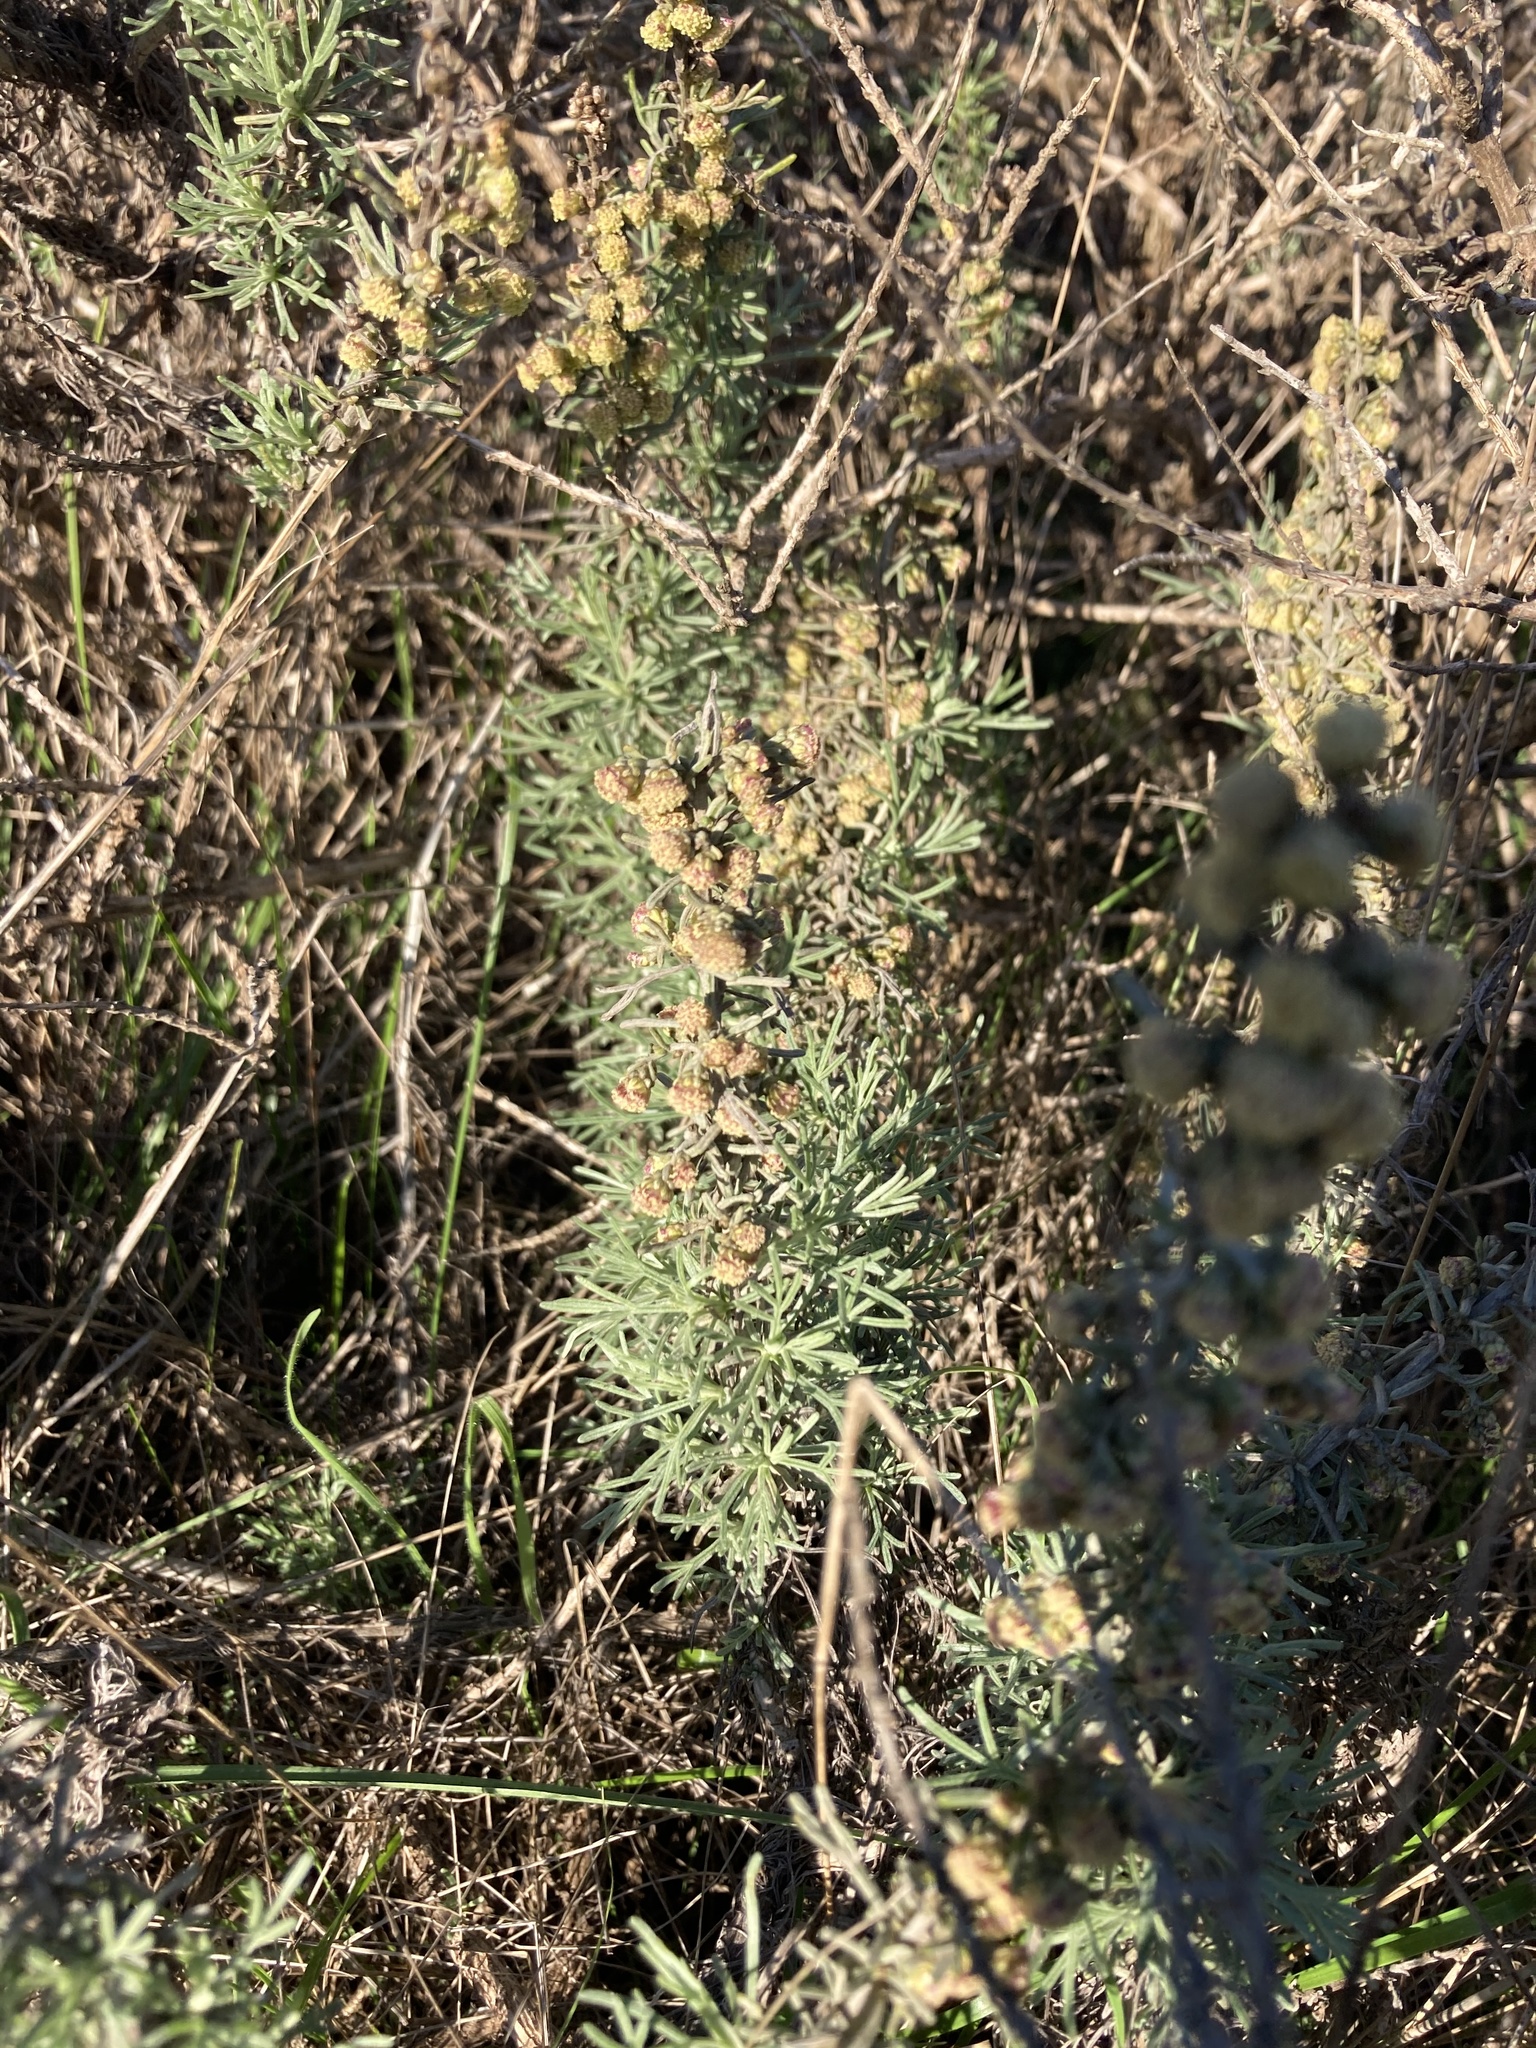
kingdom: Plantae
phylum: Tracheophyta
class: Magnoliopsida
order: Asterales
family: Asteraceae
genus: Artemisia
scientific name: Artemisia californica
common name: California sagebrush
